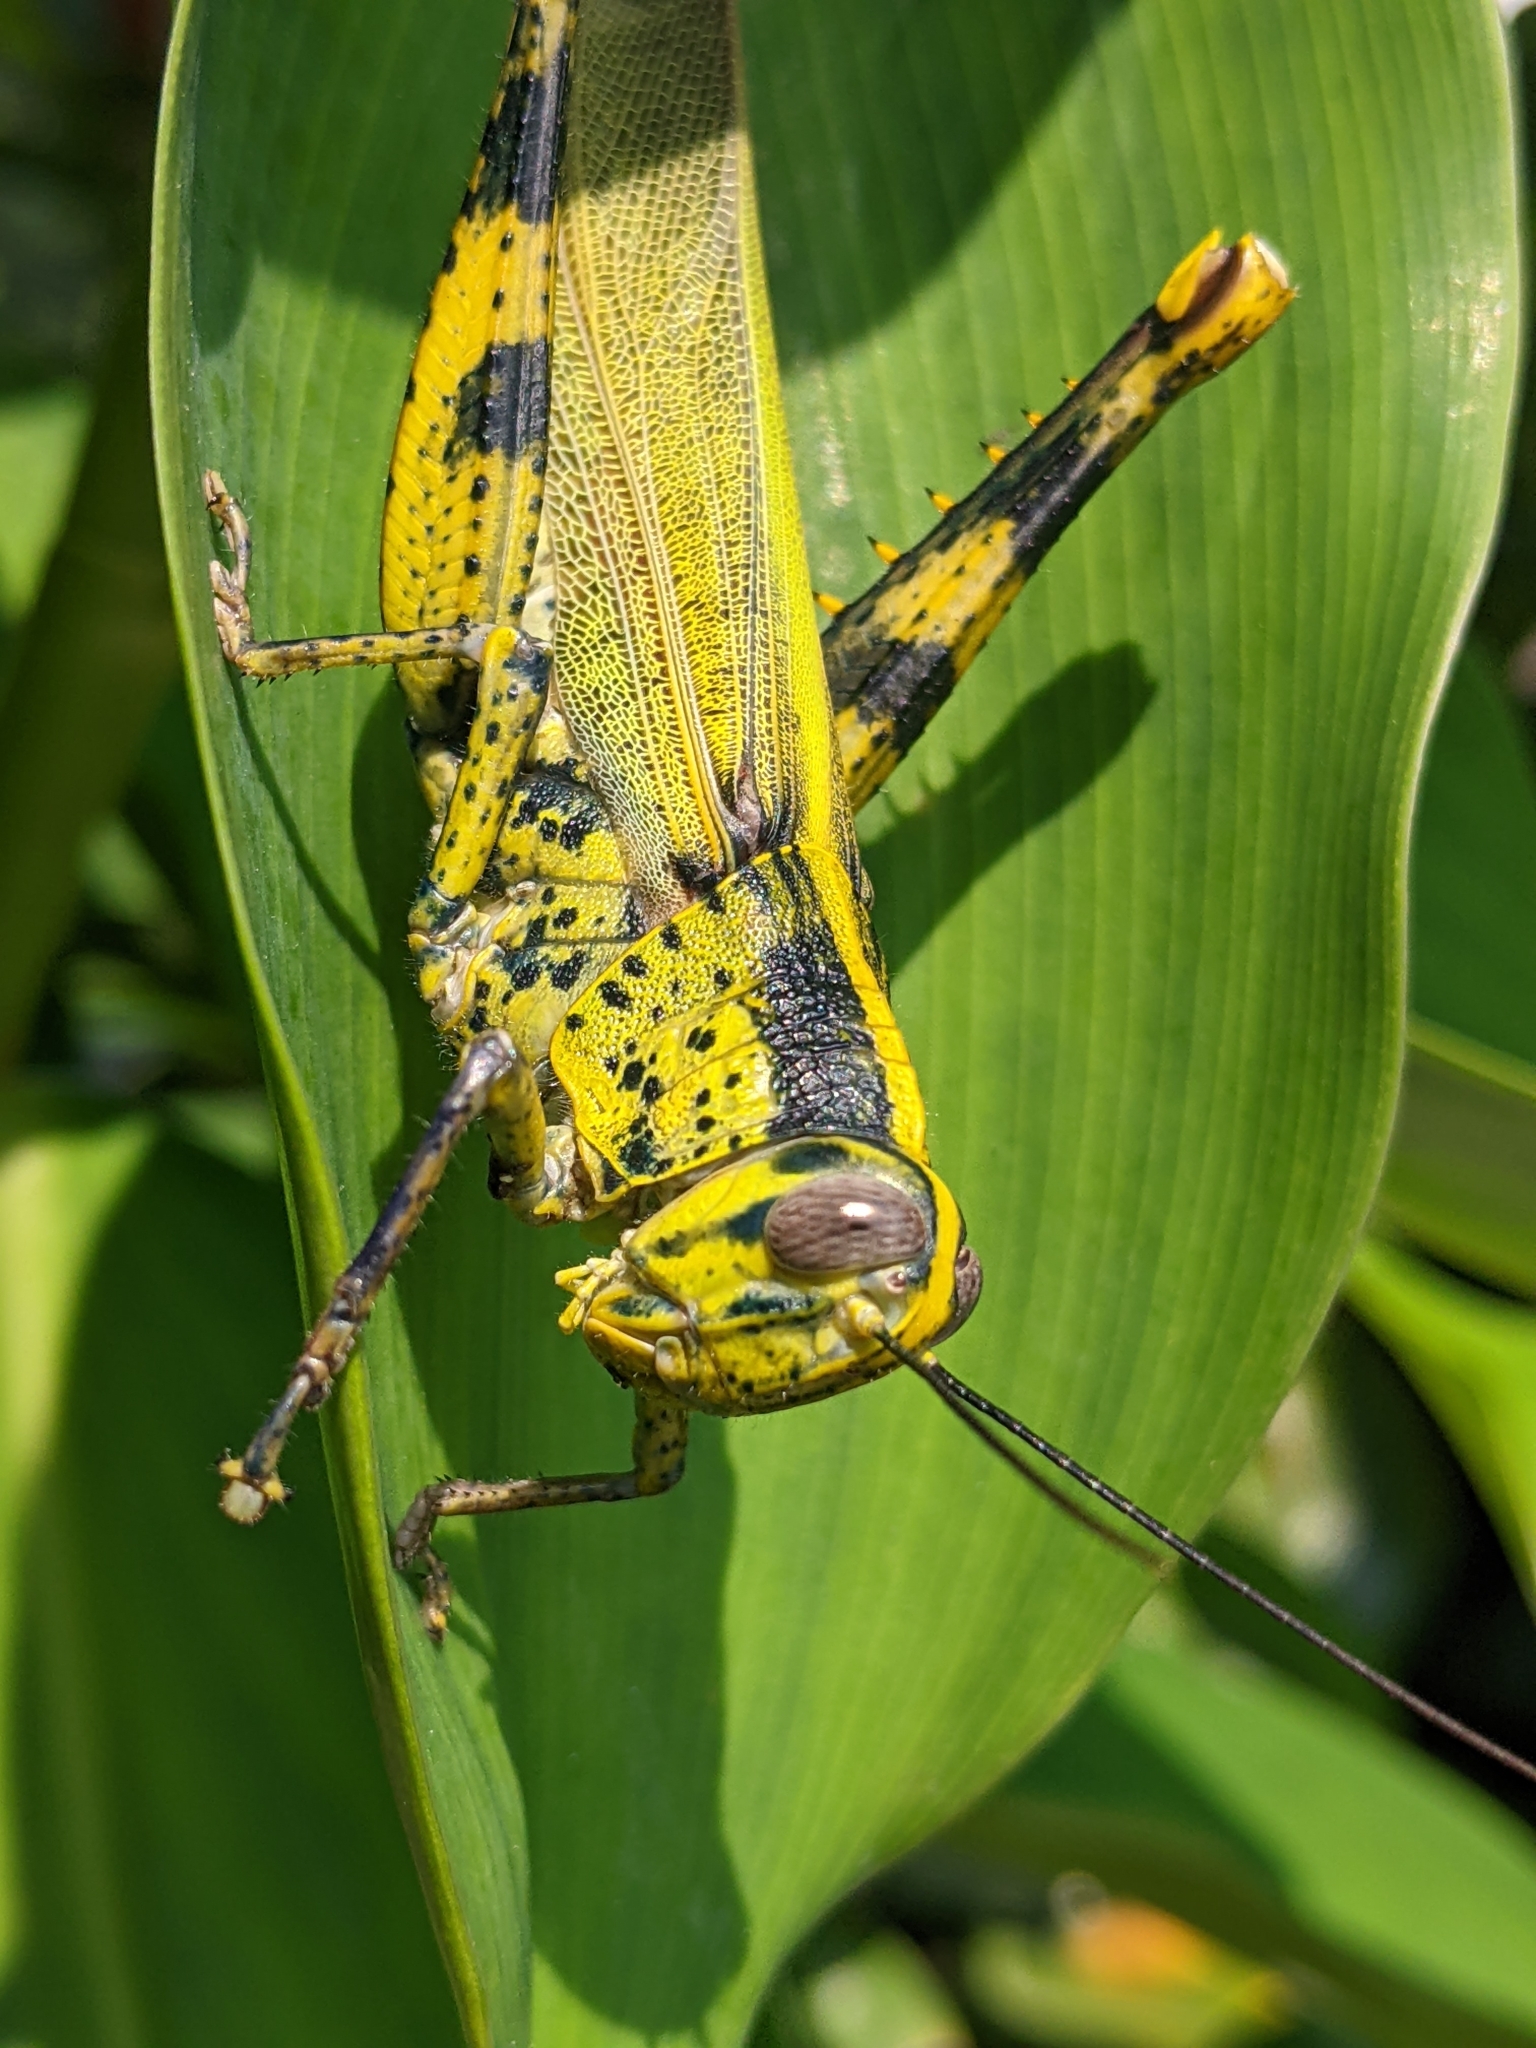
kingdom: Animalia
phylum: Arthropoda
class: Insecta
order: Orthoptera
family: Acrididae
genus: Valanga
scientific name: Valanga nigricornis
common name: Javanese bird grasshopper
